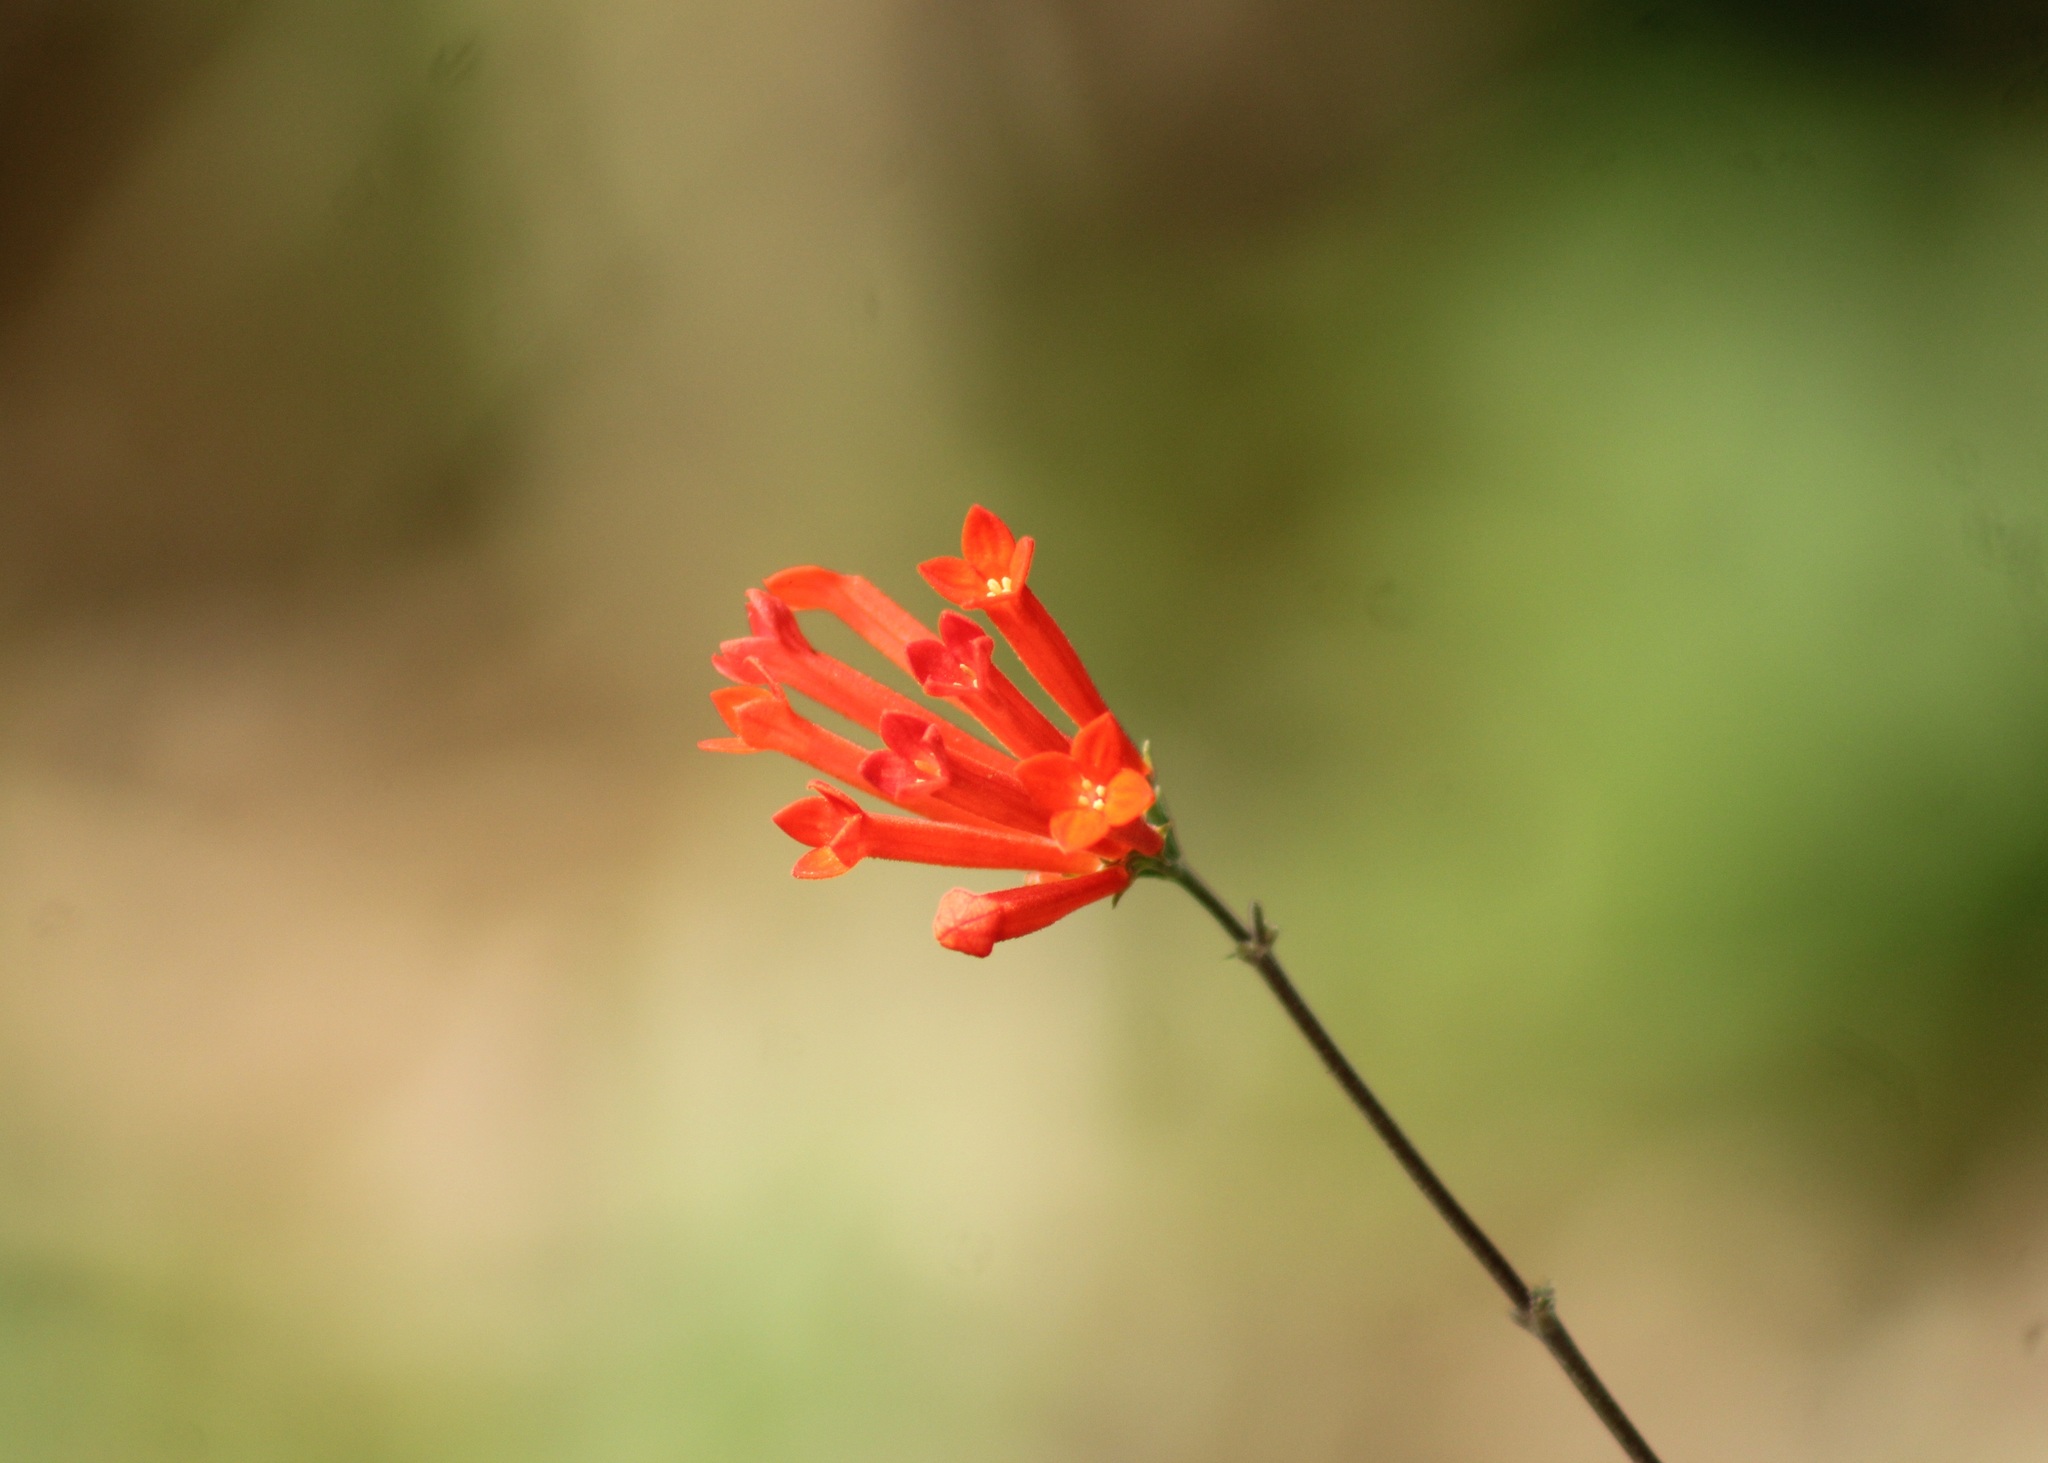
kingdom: Plantae
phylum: Tracheophyta
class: Magnoliopsida
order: Gentianales
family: Rubiaceae
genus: Bouvardia
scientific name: Bouvardia ternifolia
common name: Scarlet bouvardia
